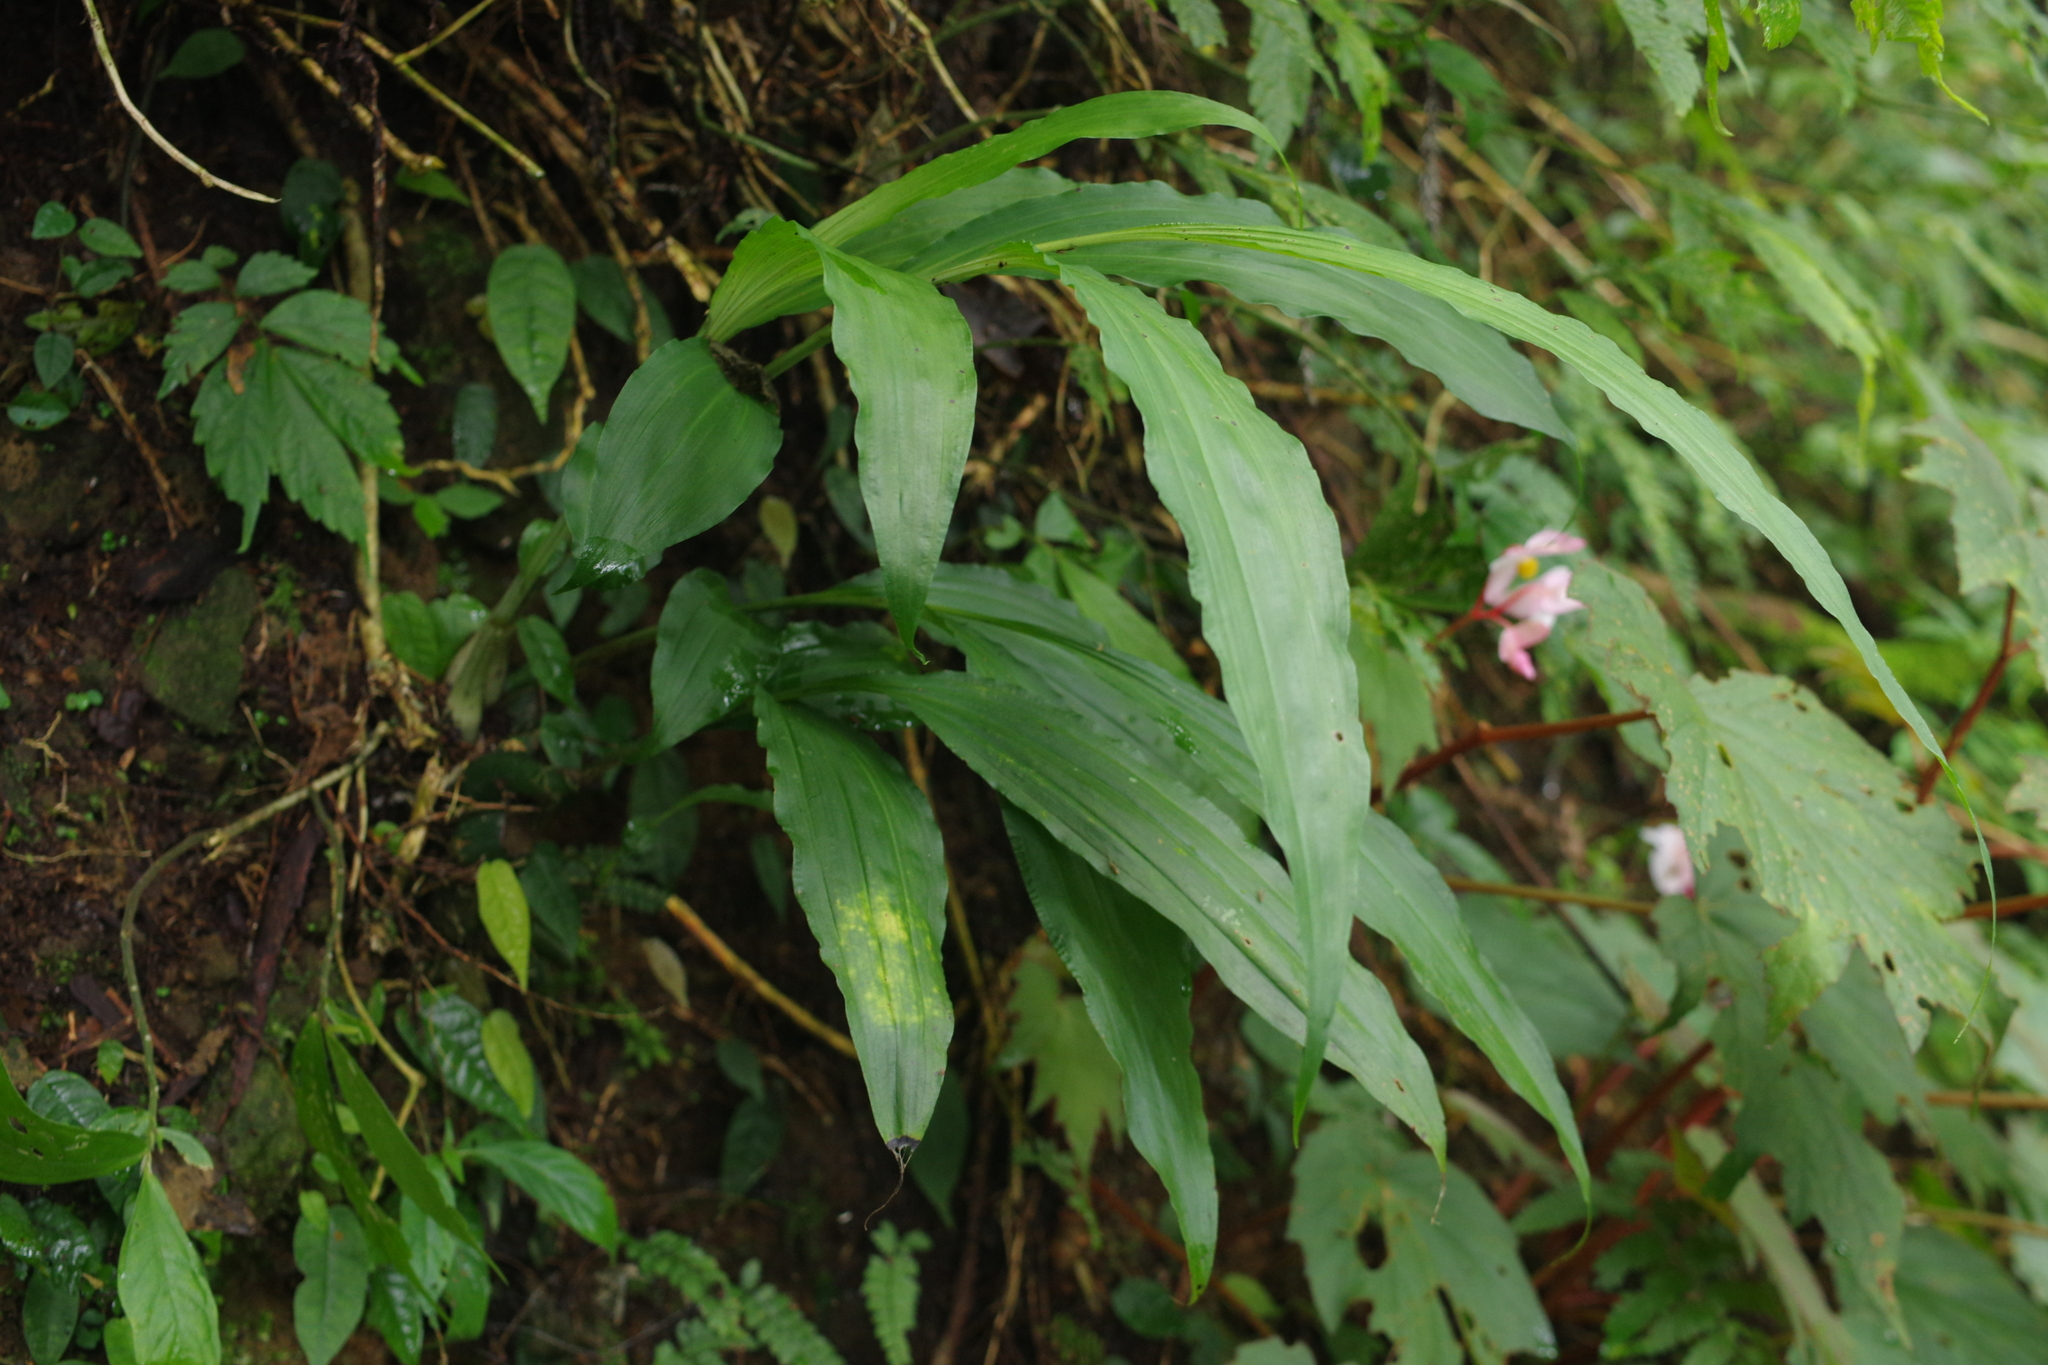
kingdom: Plantae
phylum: Tracheophyta
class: Liliopsida
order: Asparagales
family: Orchidaceae
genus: Calanthe
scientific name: Calanthe woodfordii
